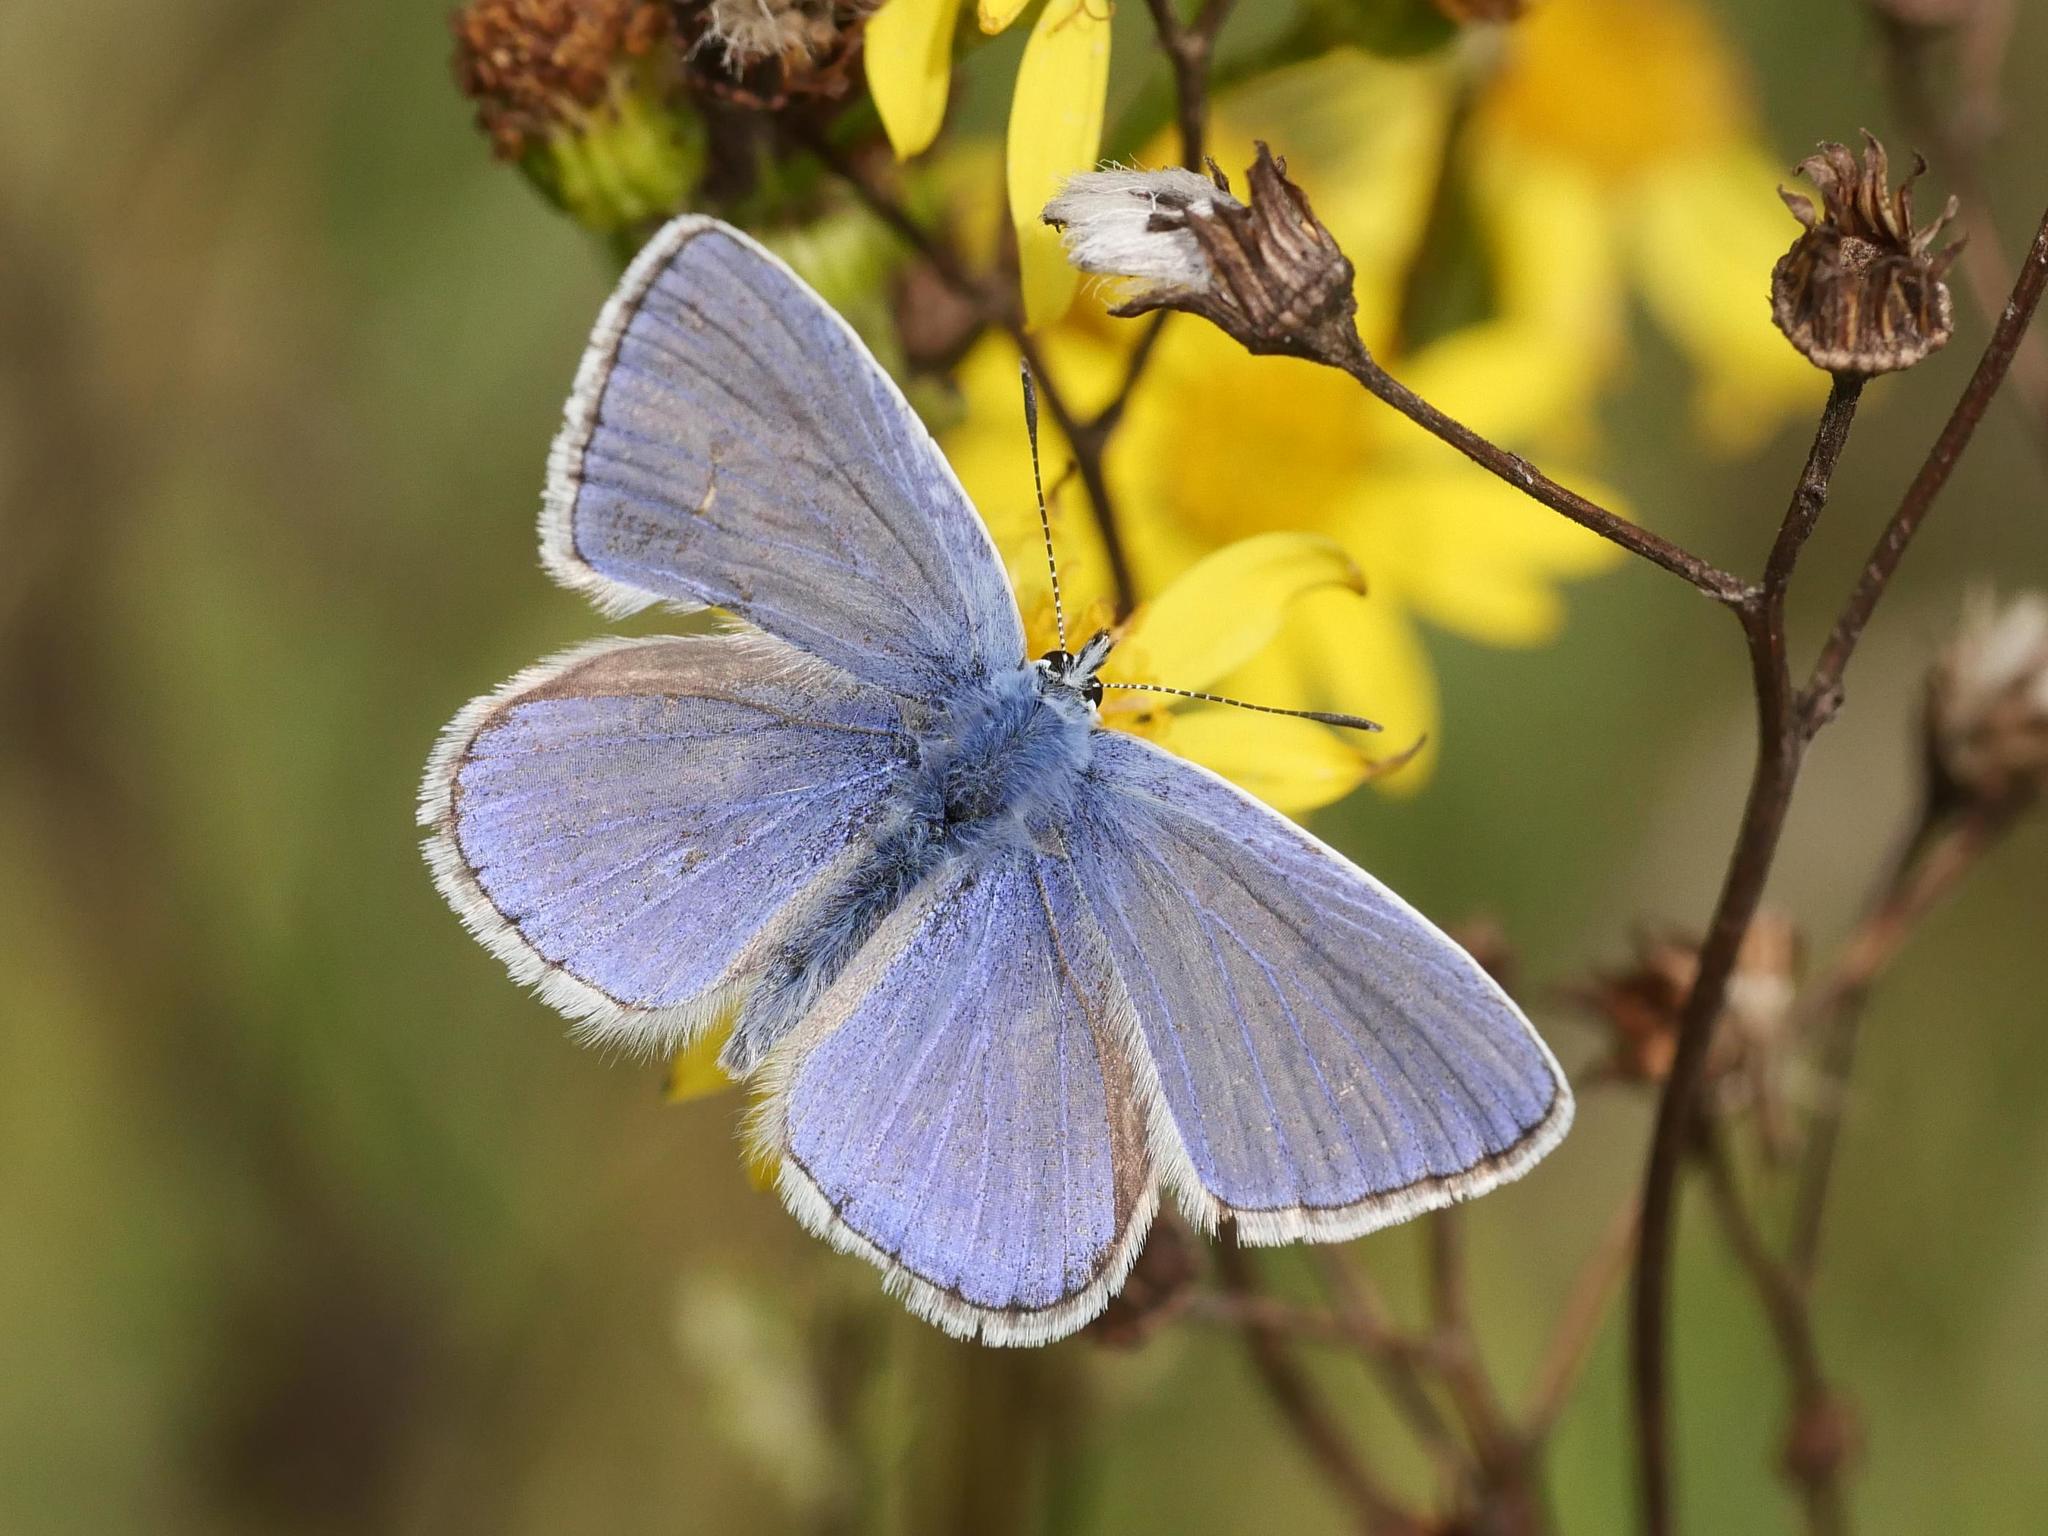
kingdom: Animalia
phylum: Arthropoda
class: Insecta
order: Lepidoptera
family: Lycaenidae
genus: Polyommatus
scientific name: Polyommatus icarus
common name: Common blue
